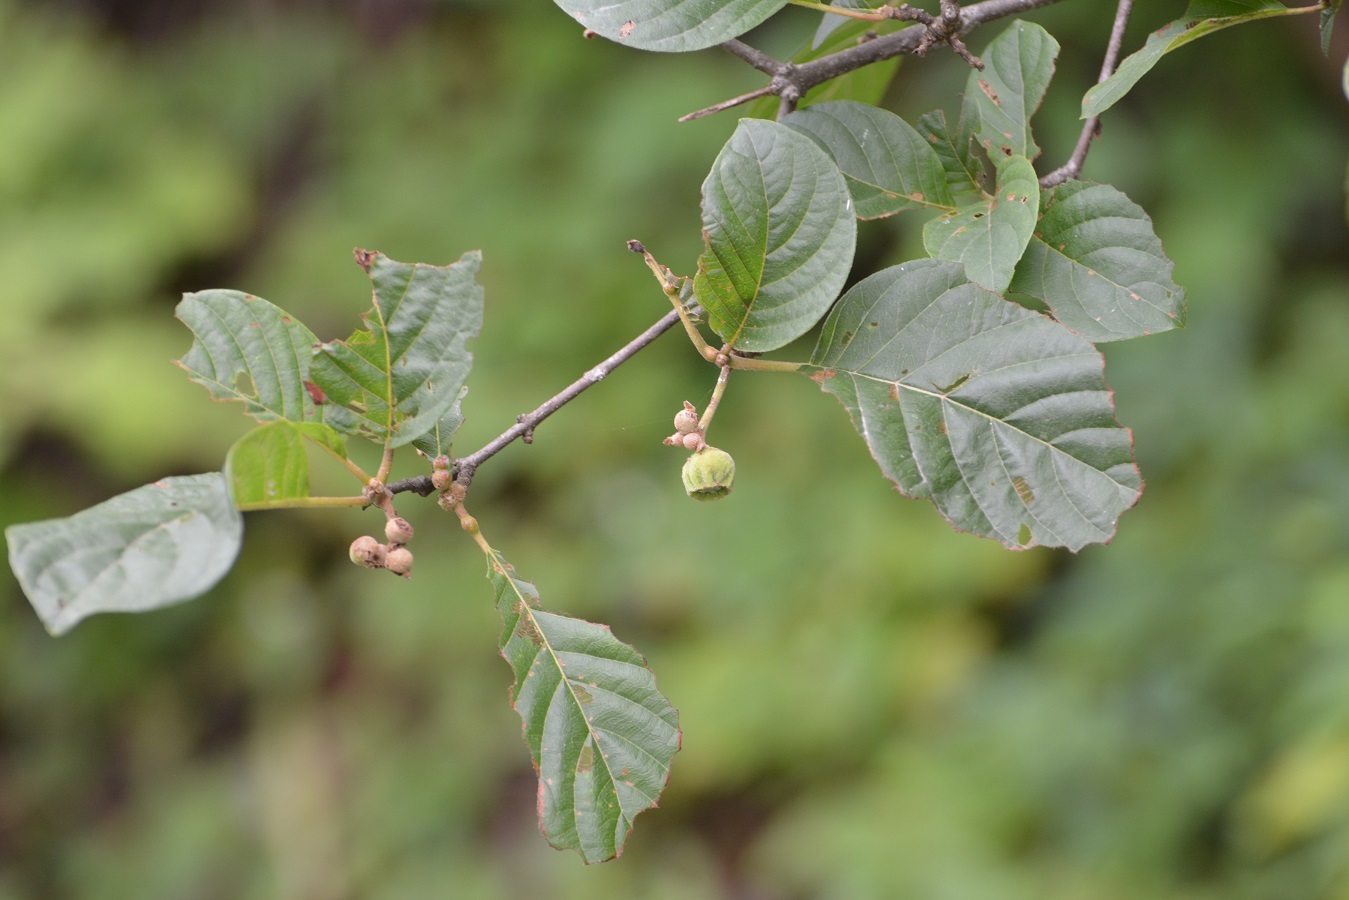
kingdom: Plantae
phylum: Tracheophyta
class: Magnoliopsida
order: Gentianales
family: Rubiaceae
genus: Guettarda
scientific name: Guettarda macrosperma
